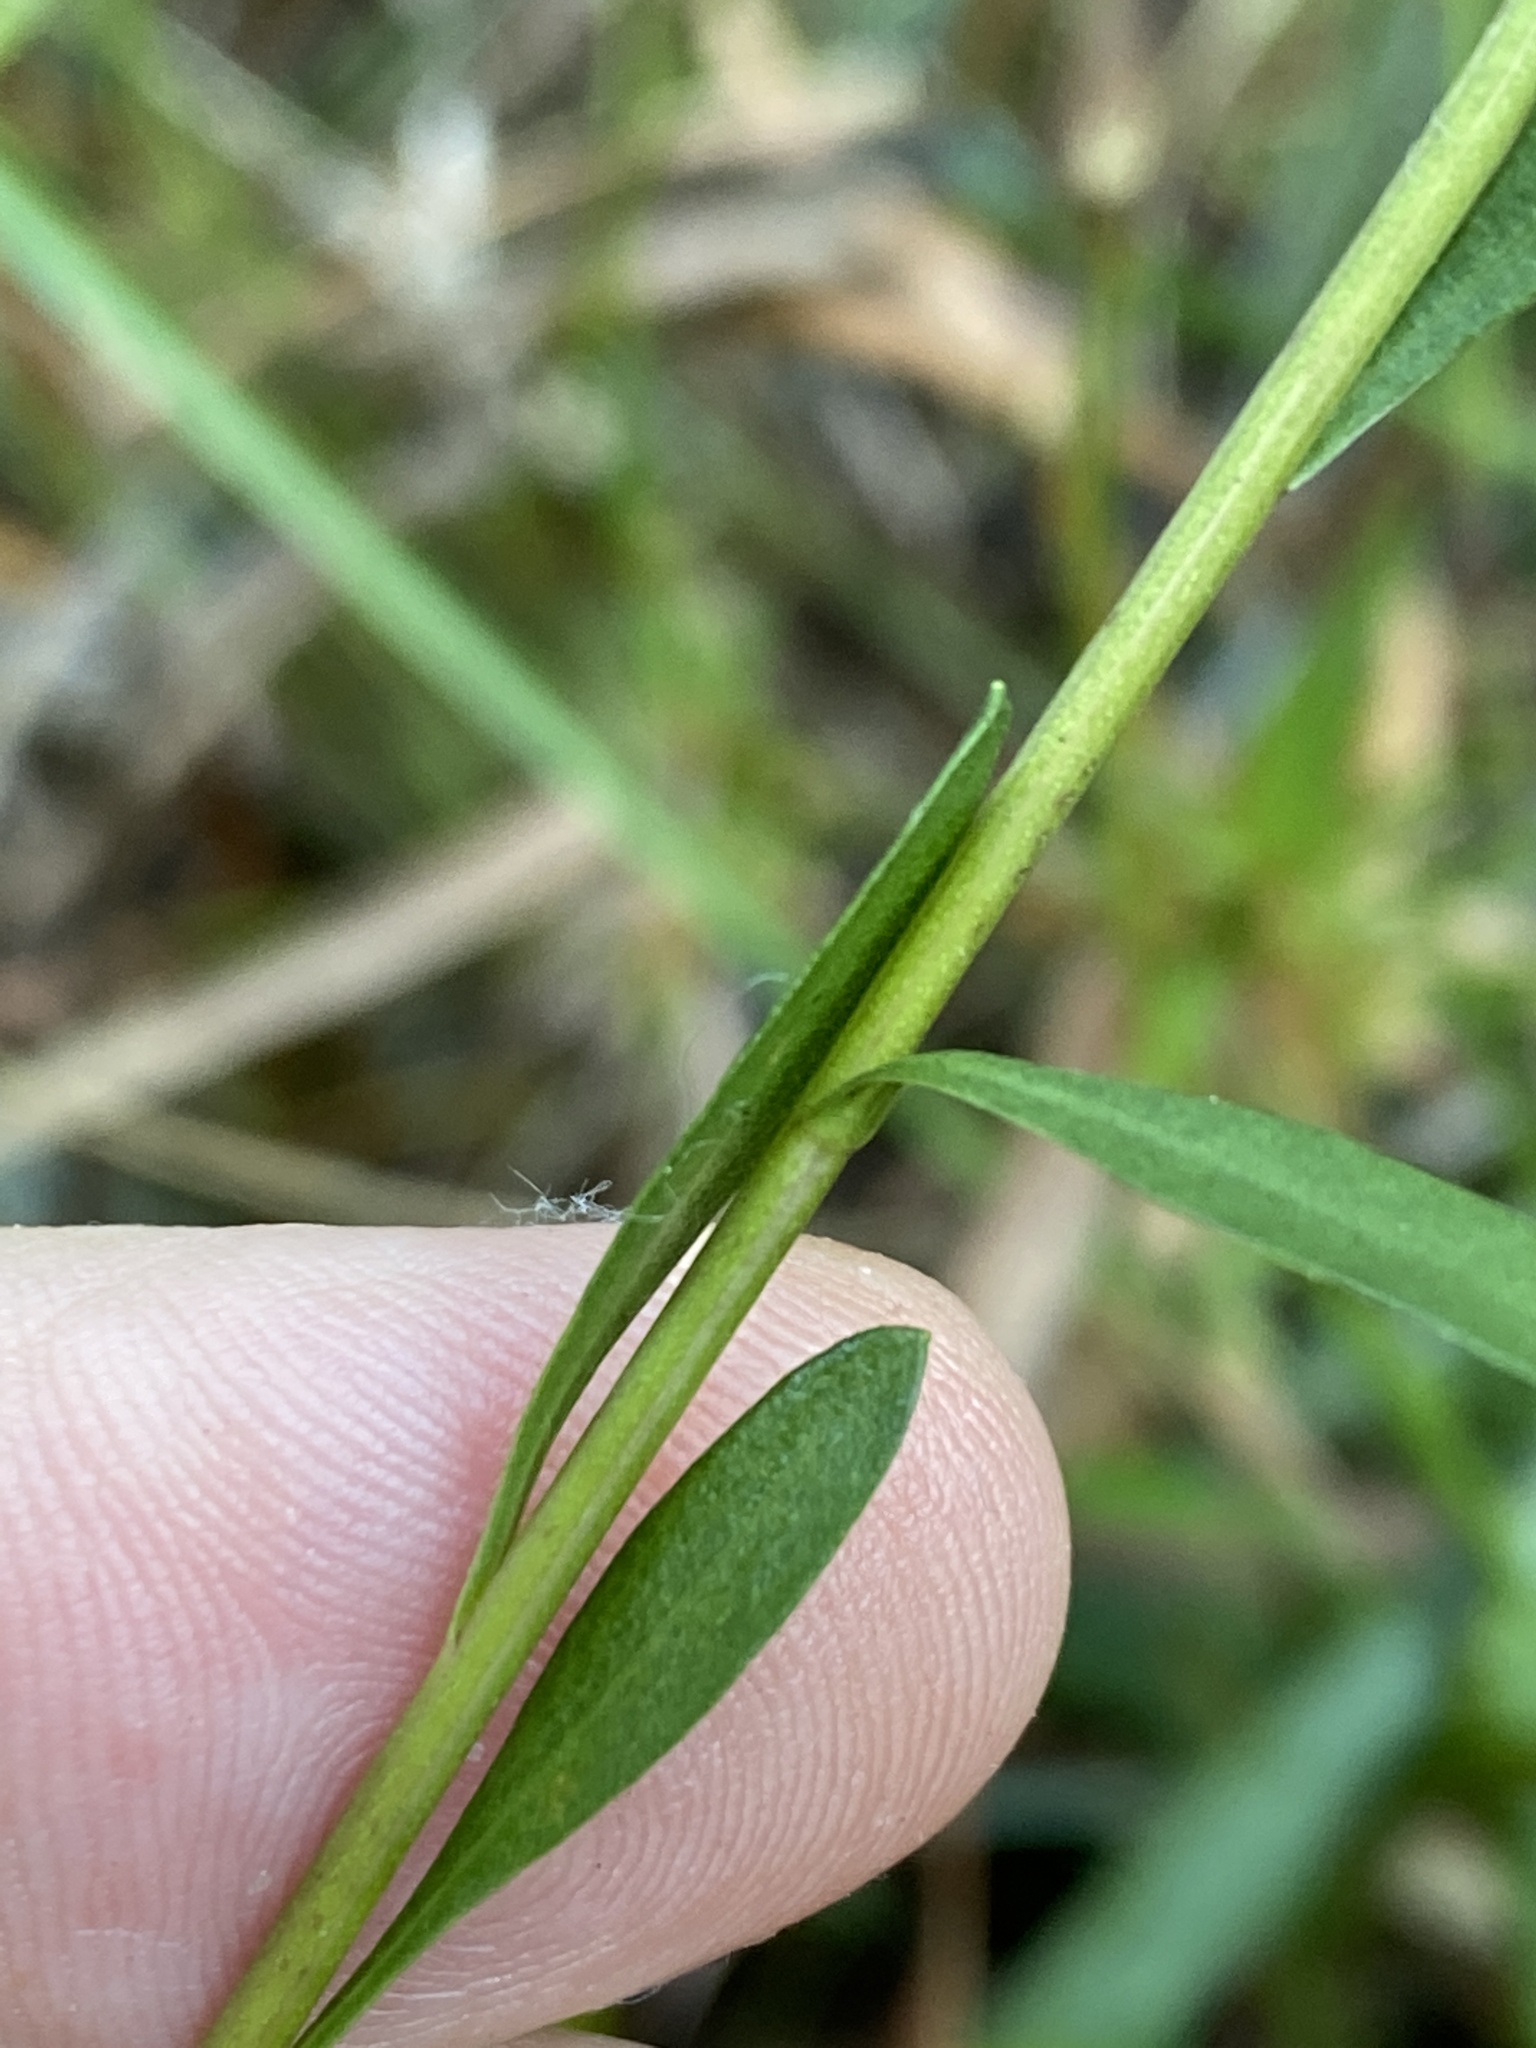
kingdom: Plantae
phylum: Tracheophyta
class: Magnoliopsida
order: Asterales
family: Asteraceae
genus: Solidago
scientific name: Solidago virgata
